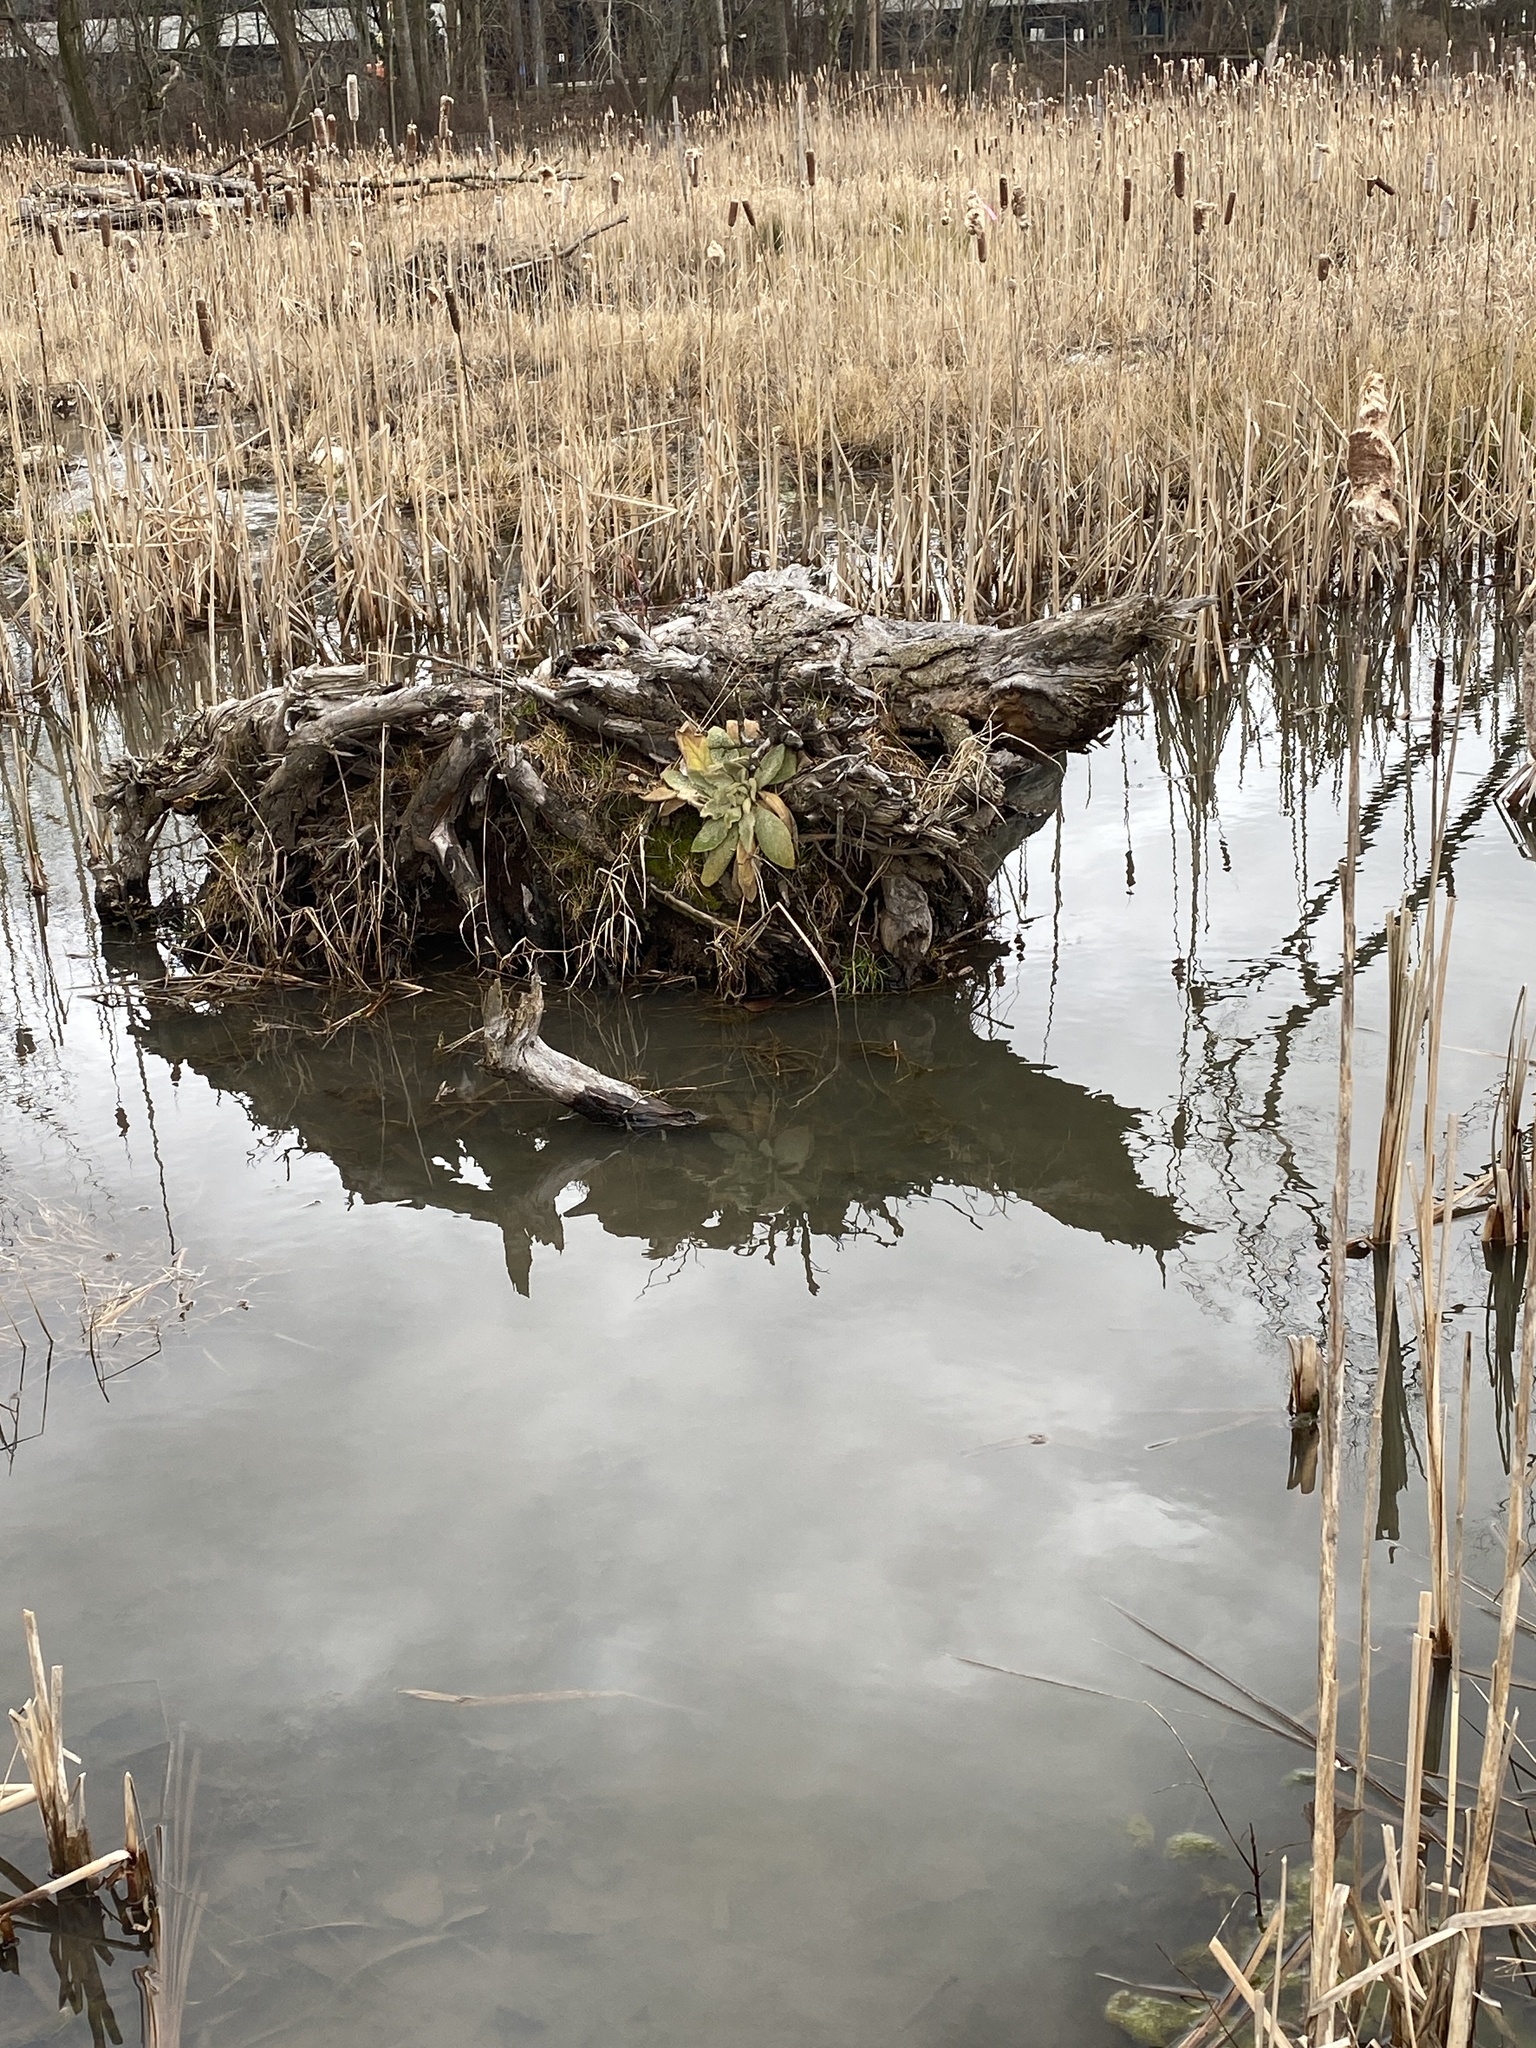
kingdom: Plantae
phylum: Tracheophyta
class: Magnoliopsida
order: Lamiales
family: Scrophulariaceae
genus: Verbascum
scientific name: Verbascum thapsus
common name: Common mullein
